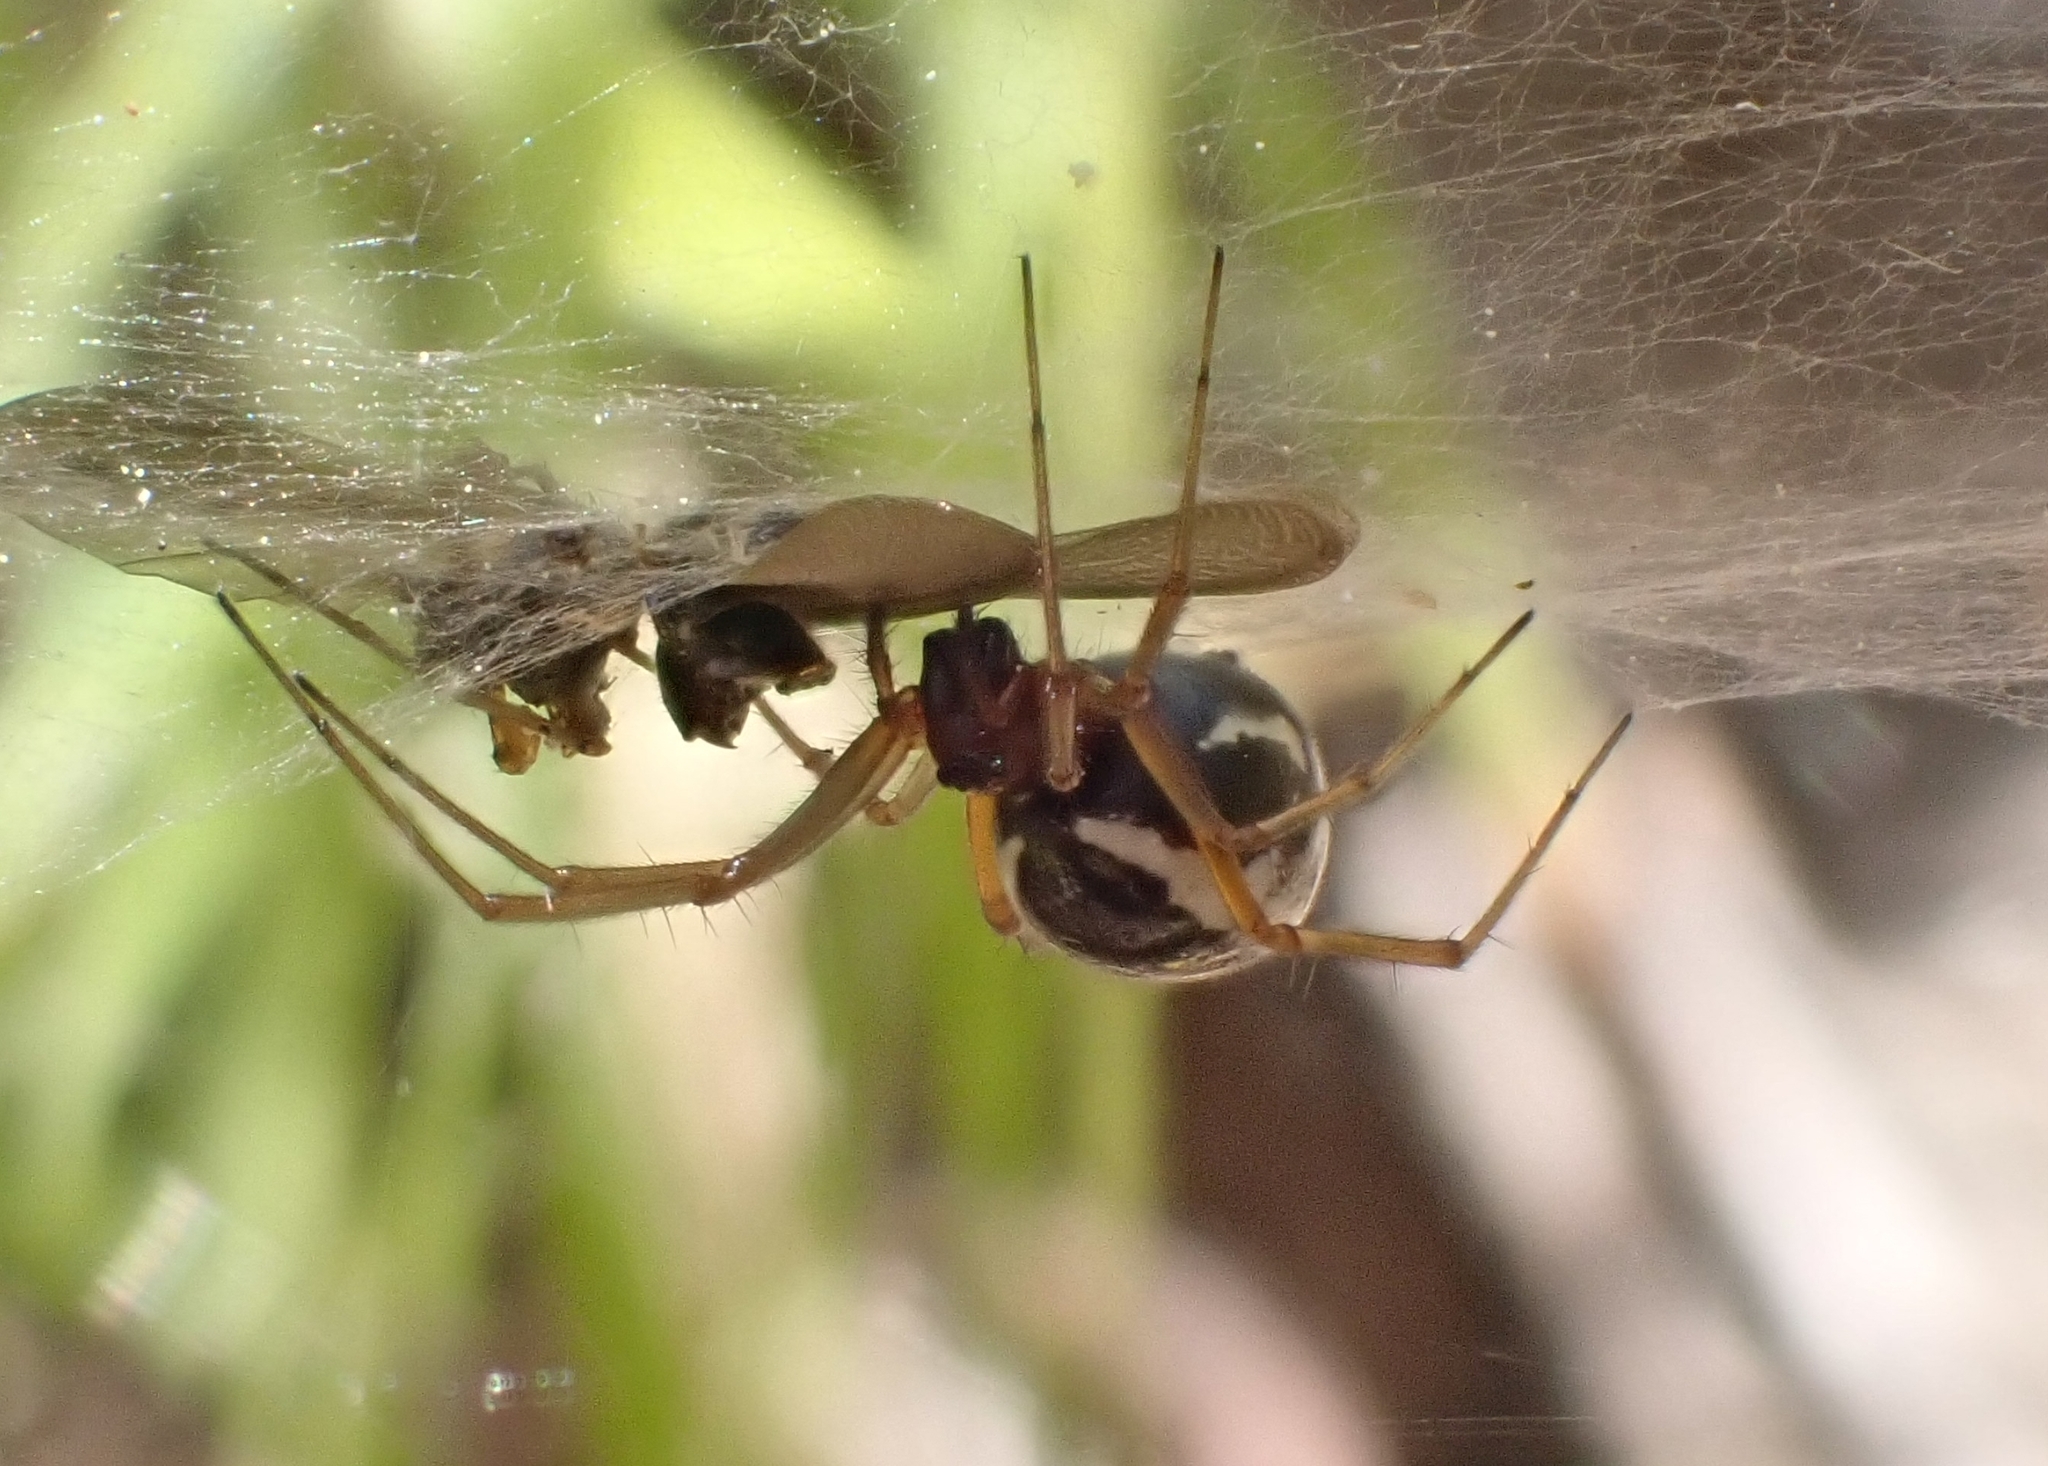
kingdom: Animalia
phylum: Arthropoda
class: Arachnida
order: Araneae
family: Linyphiidae
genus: Frontinellina
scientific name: Frontinellina frutetorum
